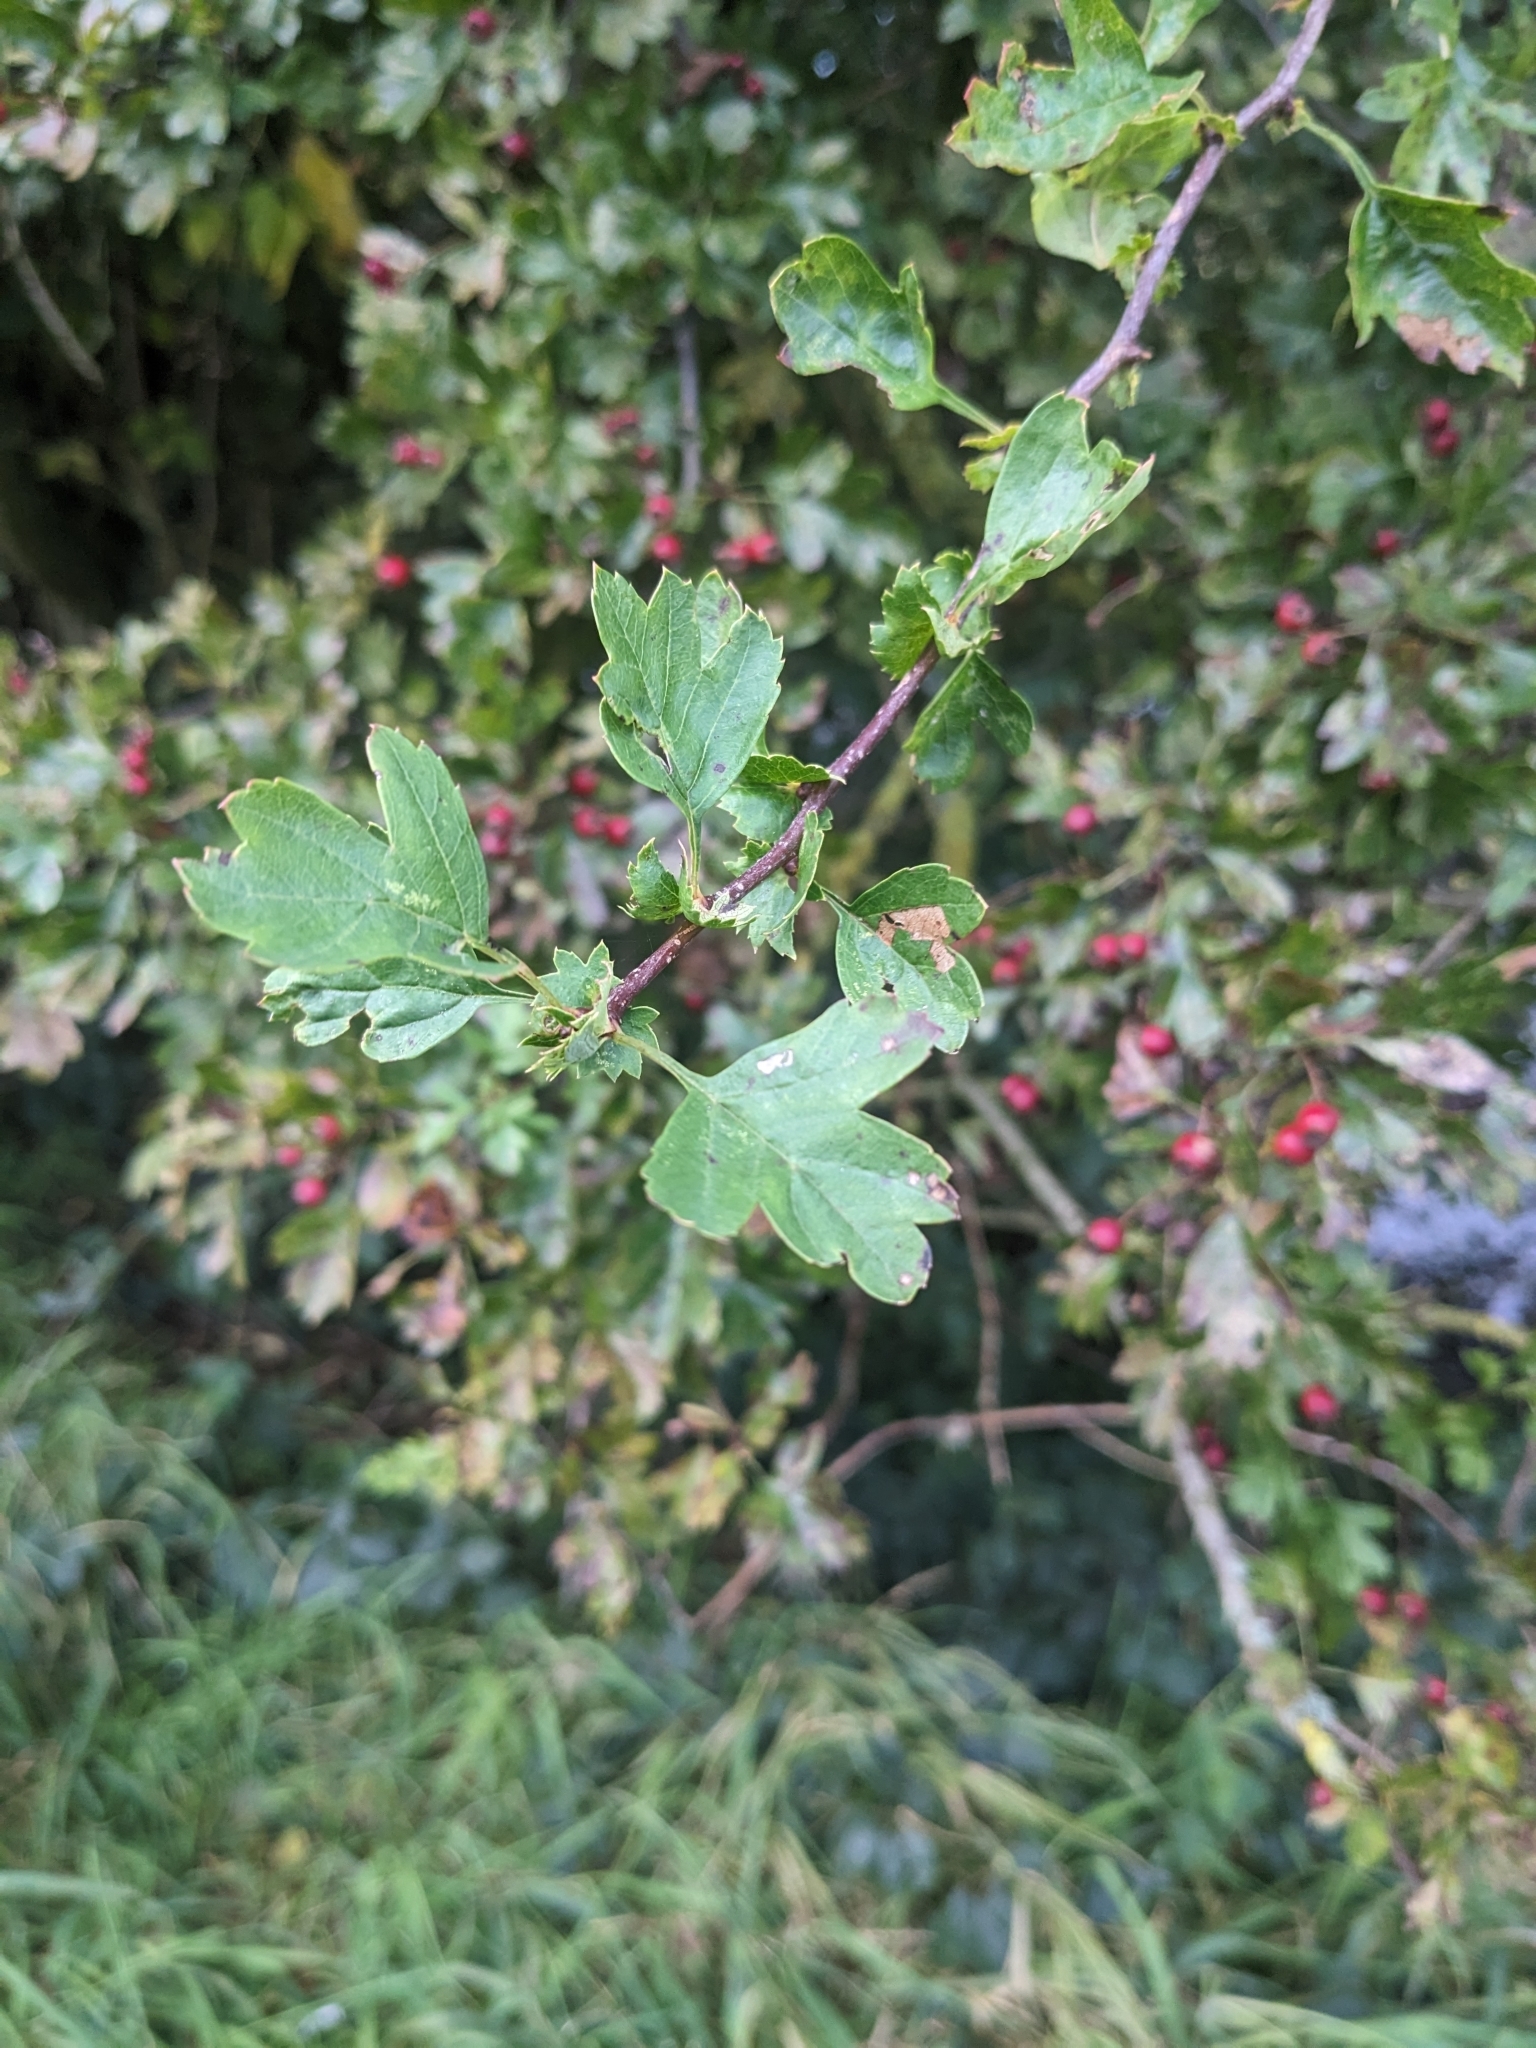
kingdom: Plantae
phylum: Tracheophyta
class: Magnoliopsida
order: Rosales
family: Rosaceae
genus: Crataegus
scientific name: Crataegus monogyna
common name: Hawthorn
